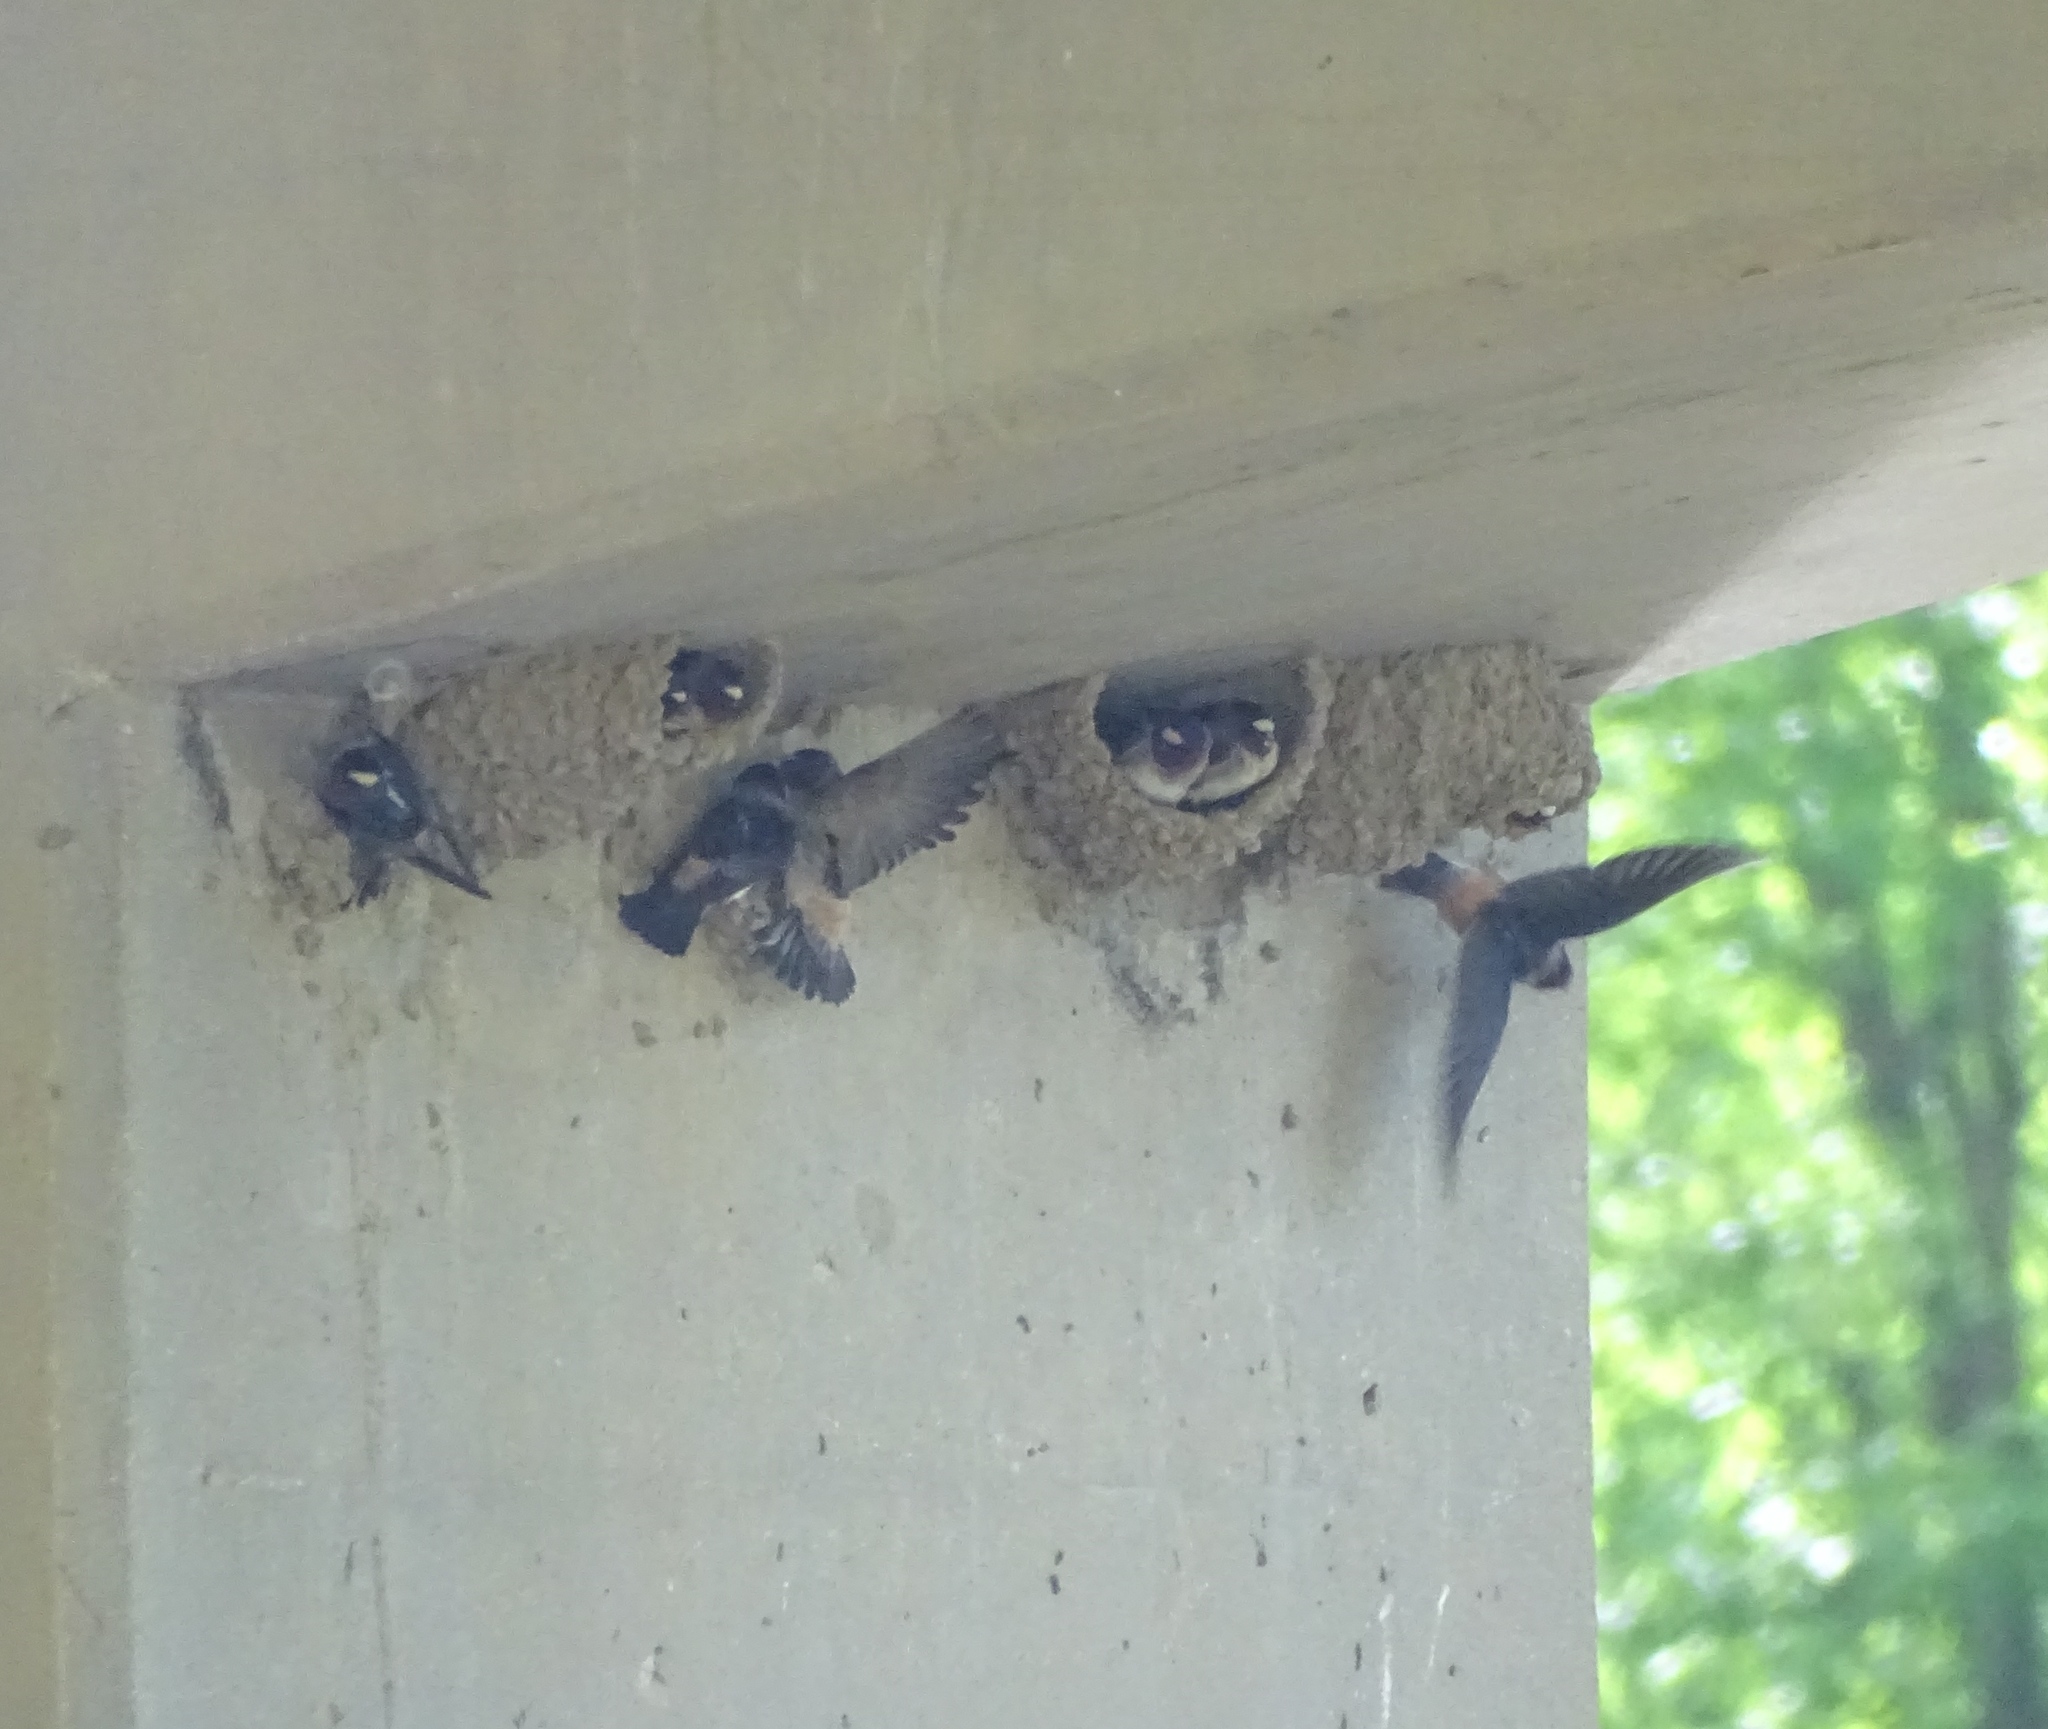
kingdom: Animalia
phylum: Chordata
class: Aves
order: Passeriformes
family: Hirundinidae
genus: Petrochelidon
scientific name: Petrochelidon pyrrhonota
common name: American cliff swallow
